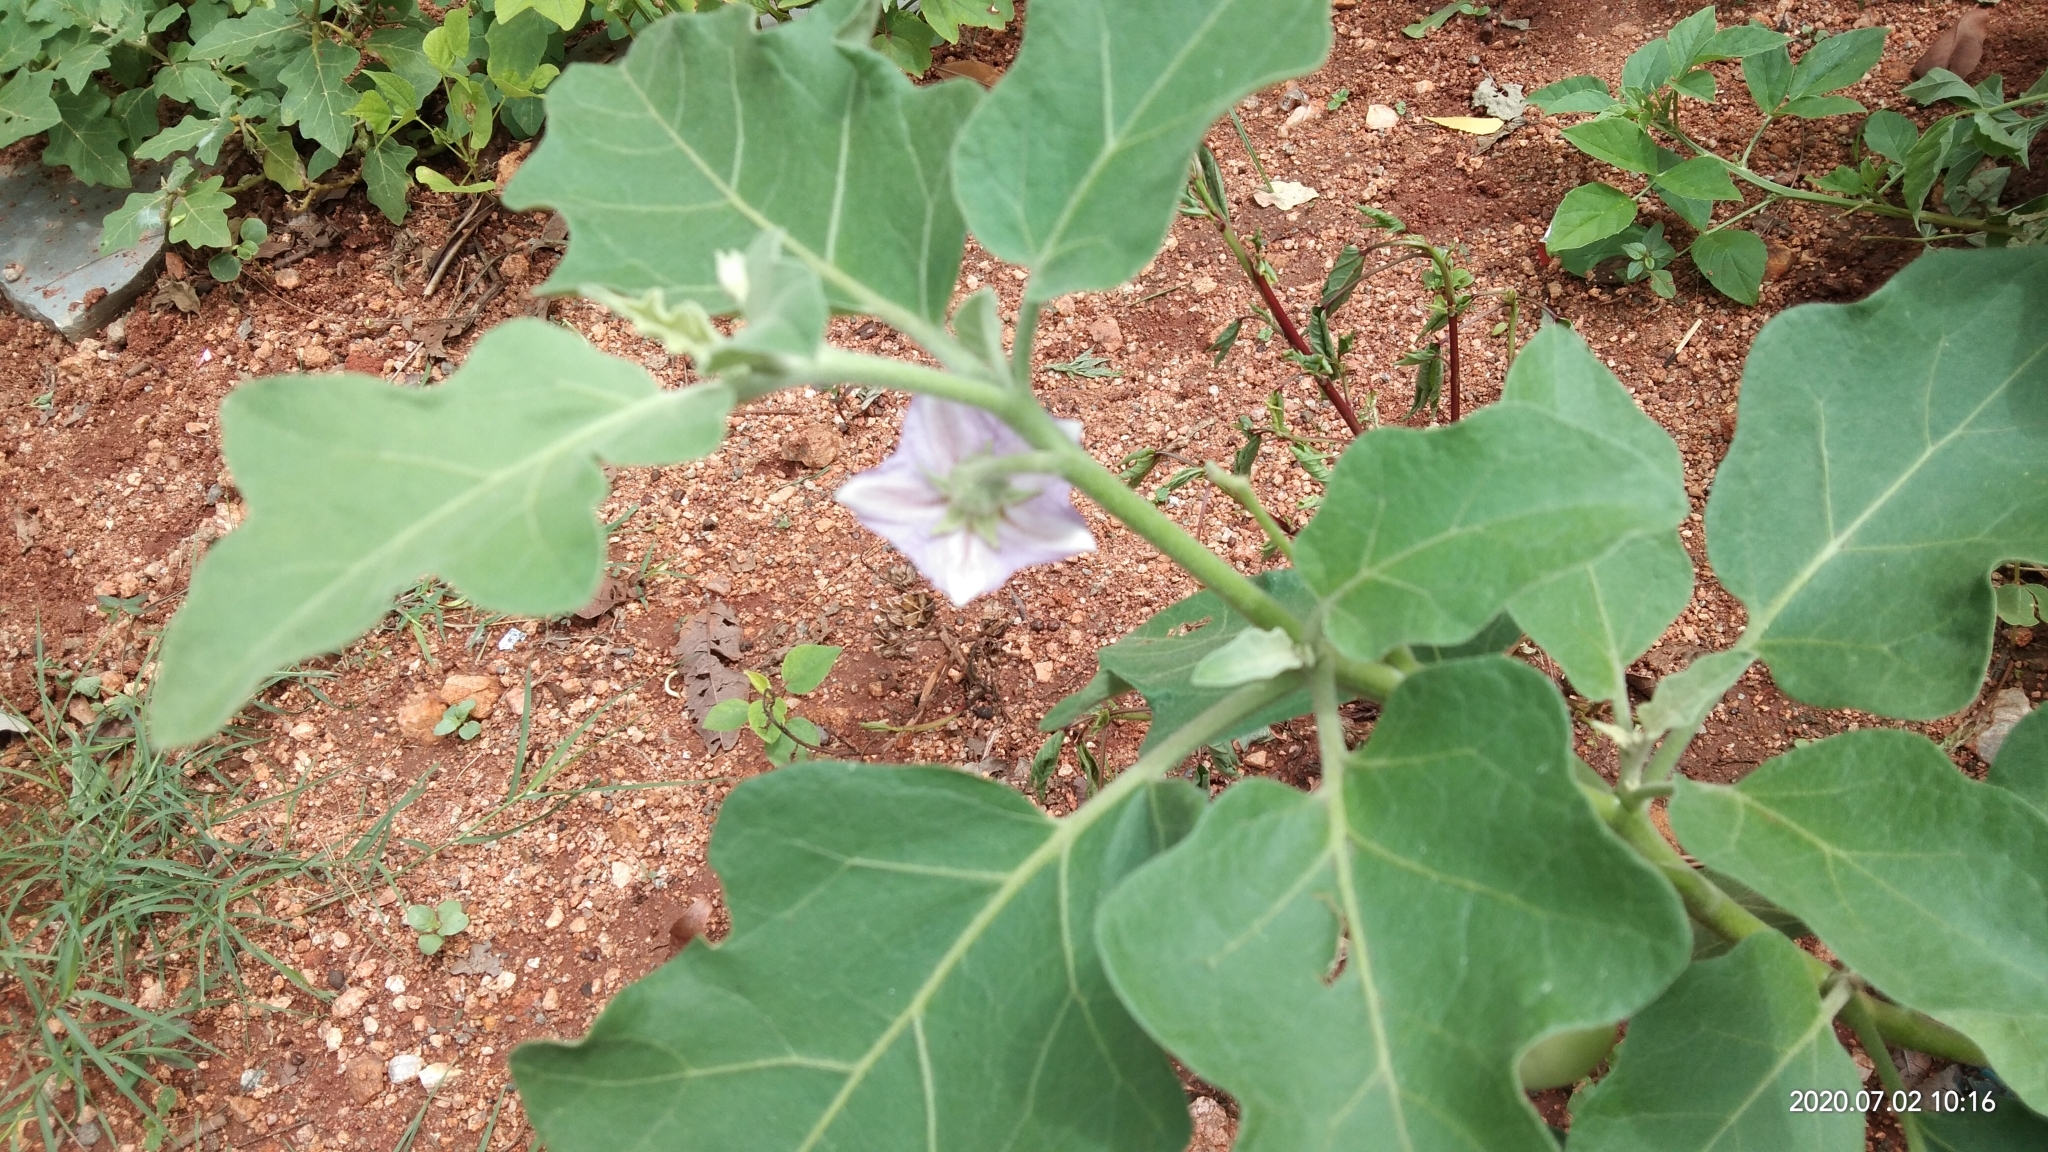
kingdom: Plantae
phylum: Tracheophyta
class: Magnoliopsida
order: Solanales
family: Solanaceae
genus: Solanum
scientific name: Solanum melongena
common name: Eggplant
